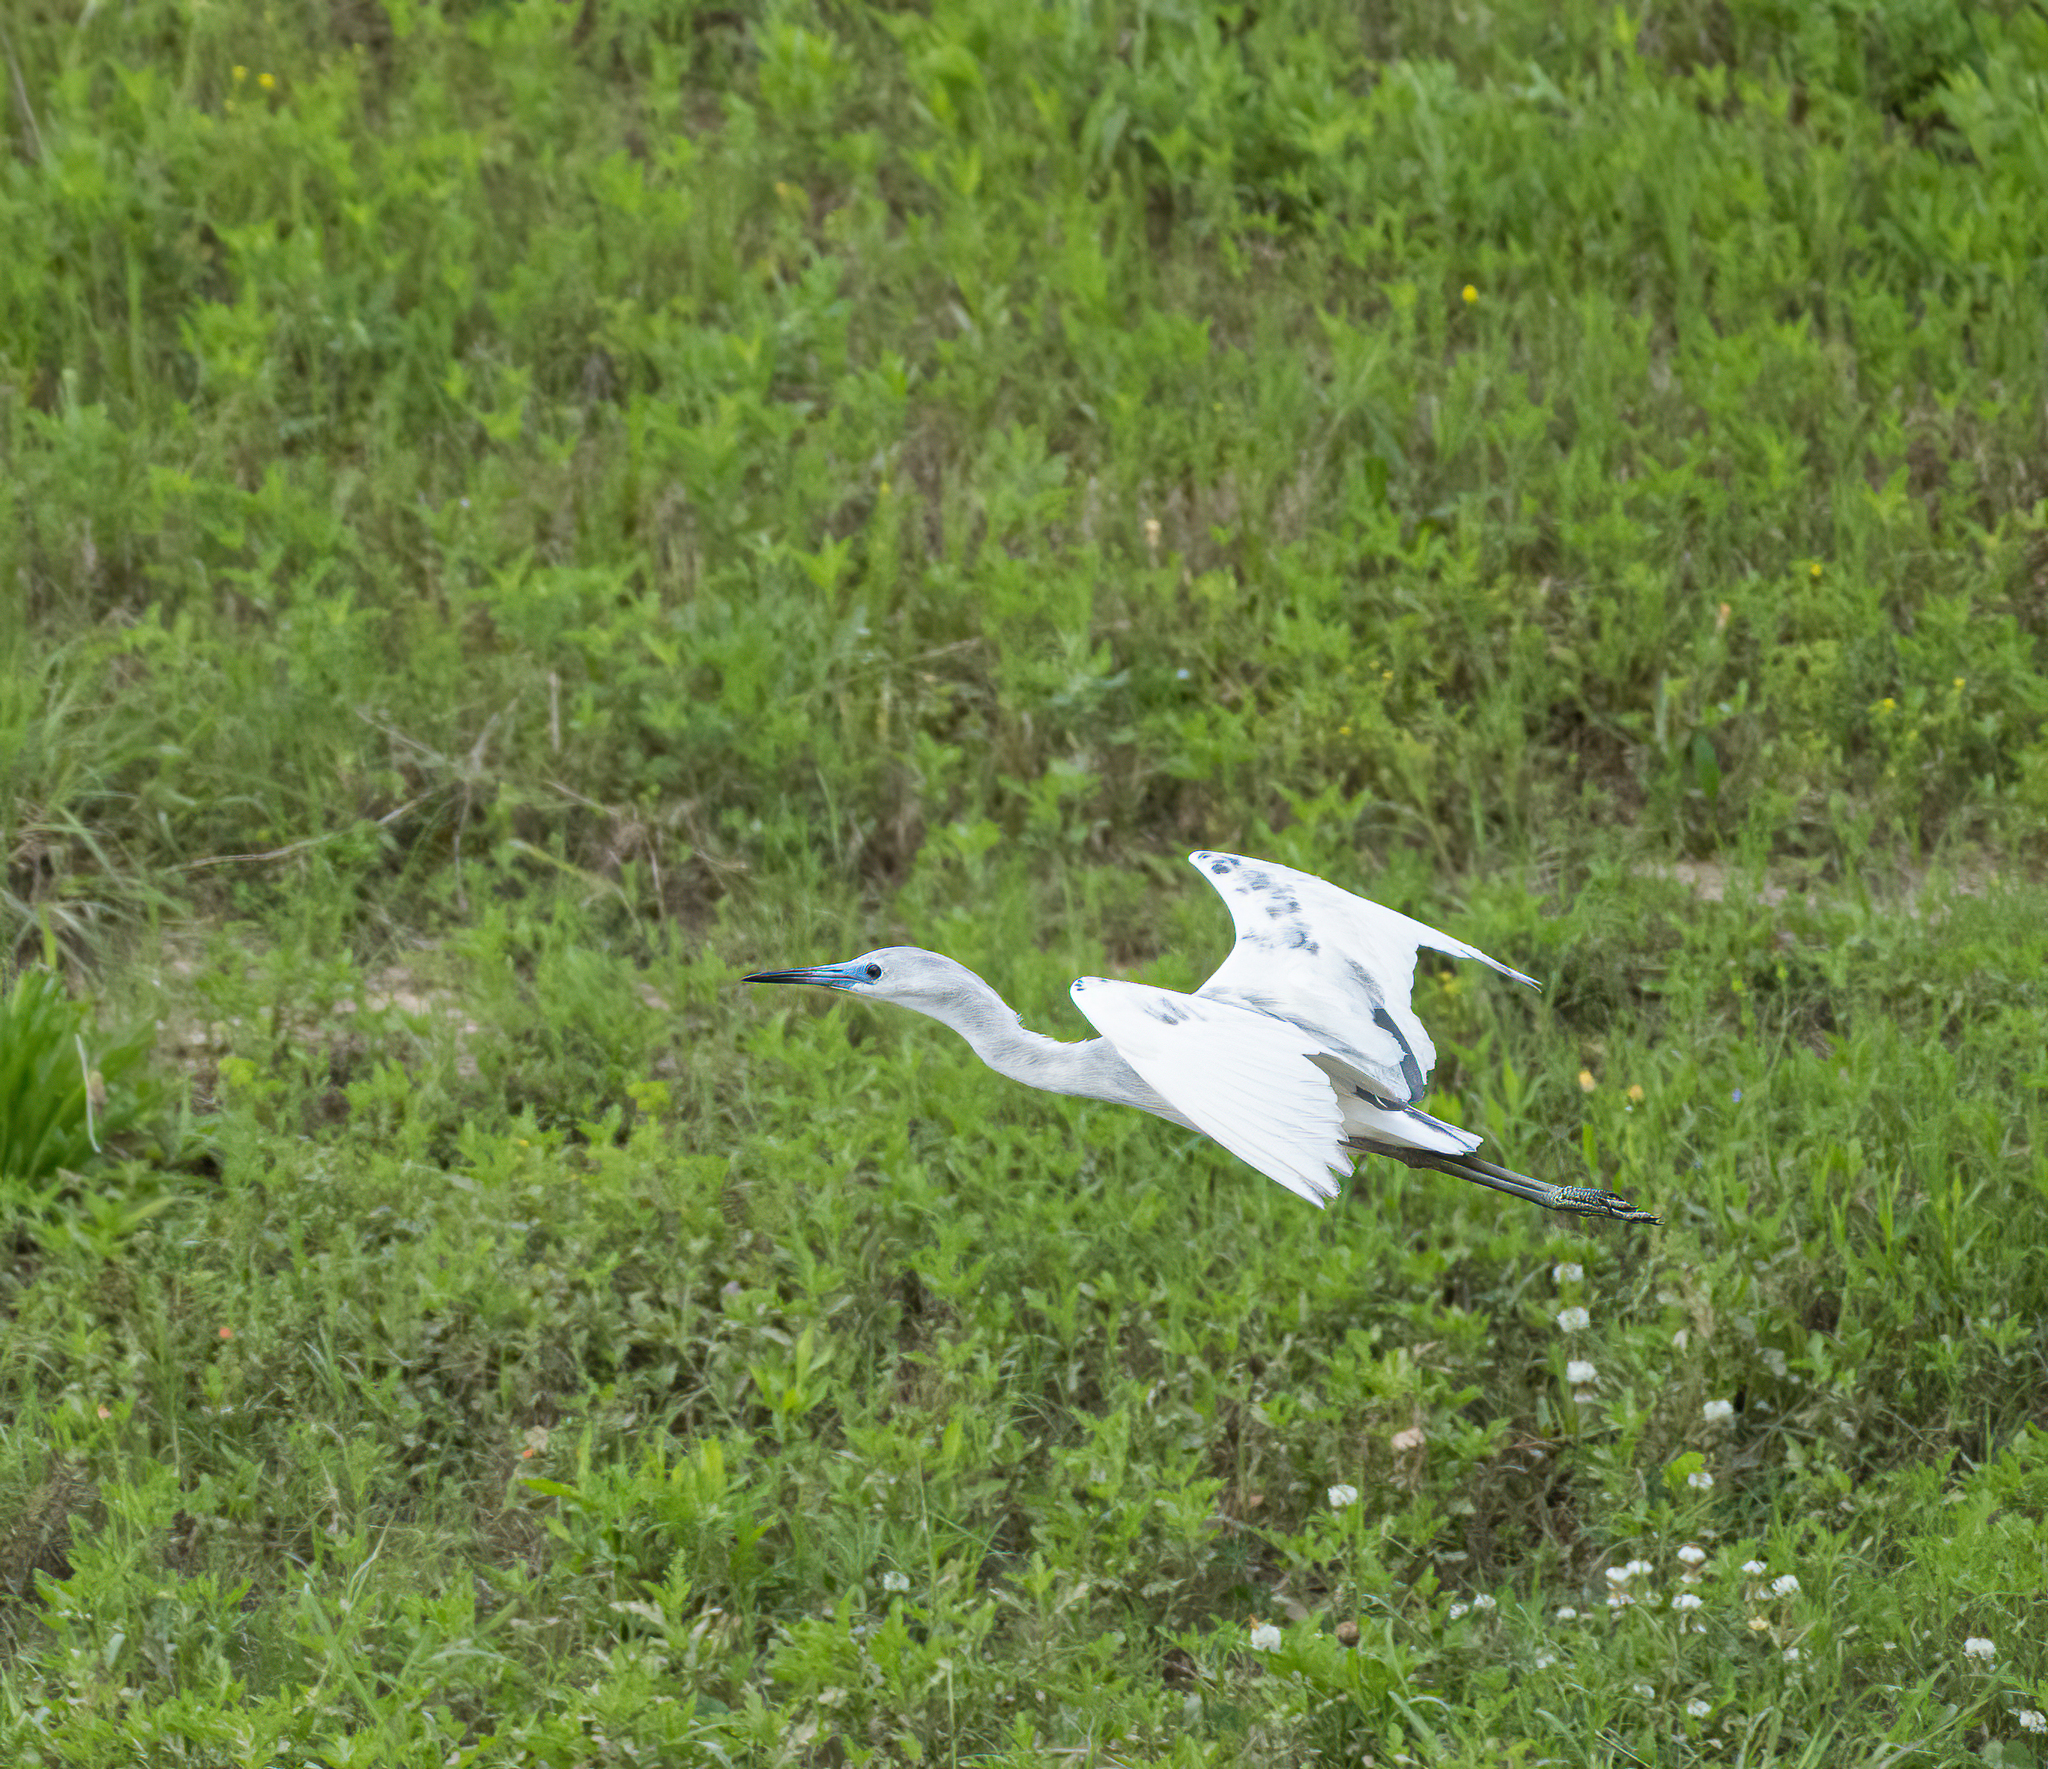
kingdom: Animalia
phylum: Chordata
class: Aves
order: Pelecaniformes
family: Ardeidae
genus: Egretta
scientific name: Egretta caerulea
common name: Little blue heron
